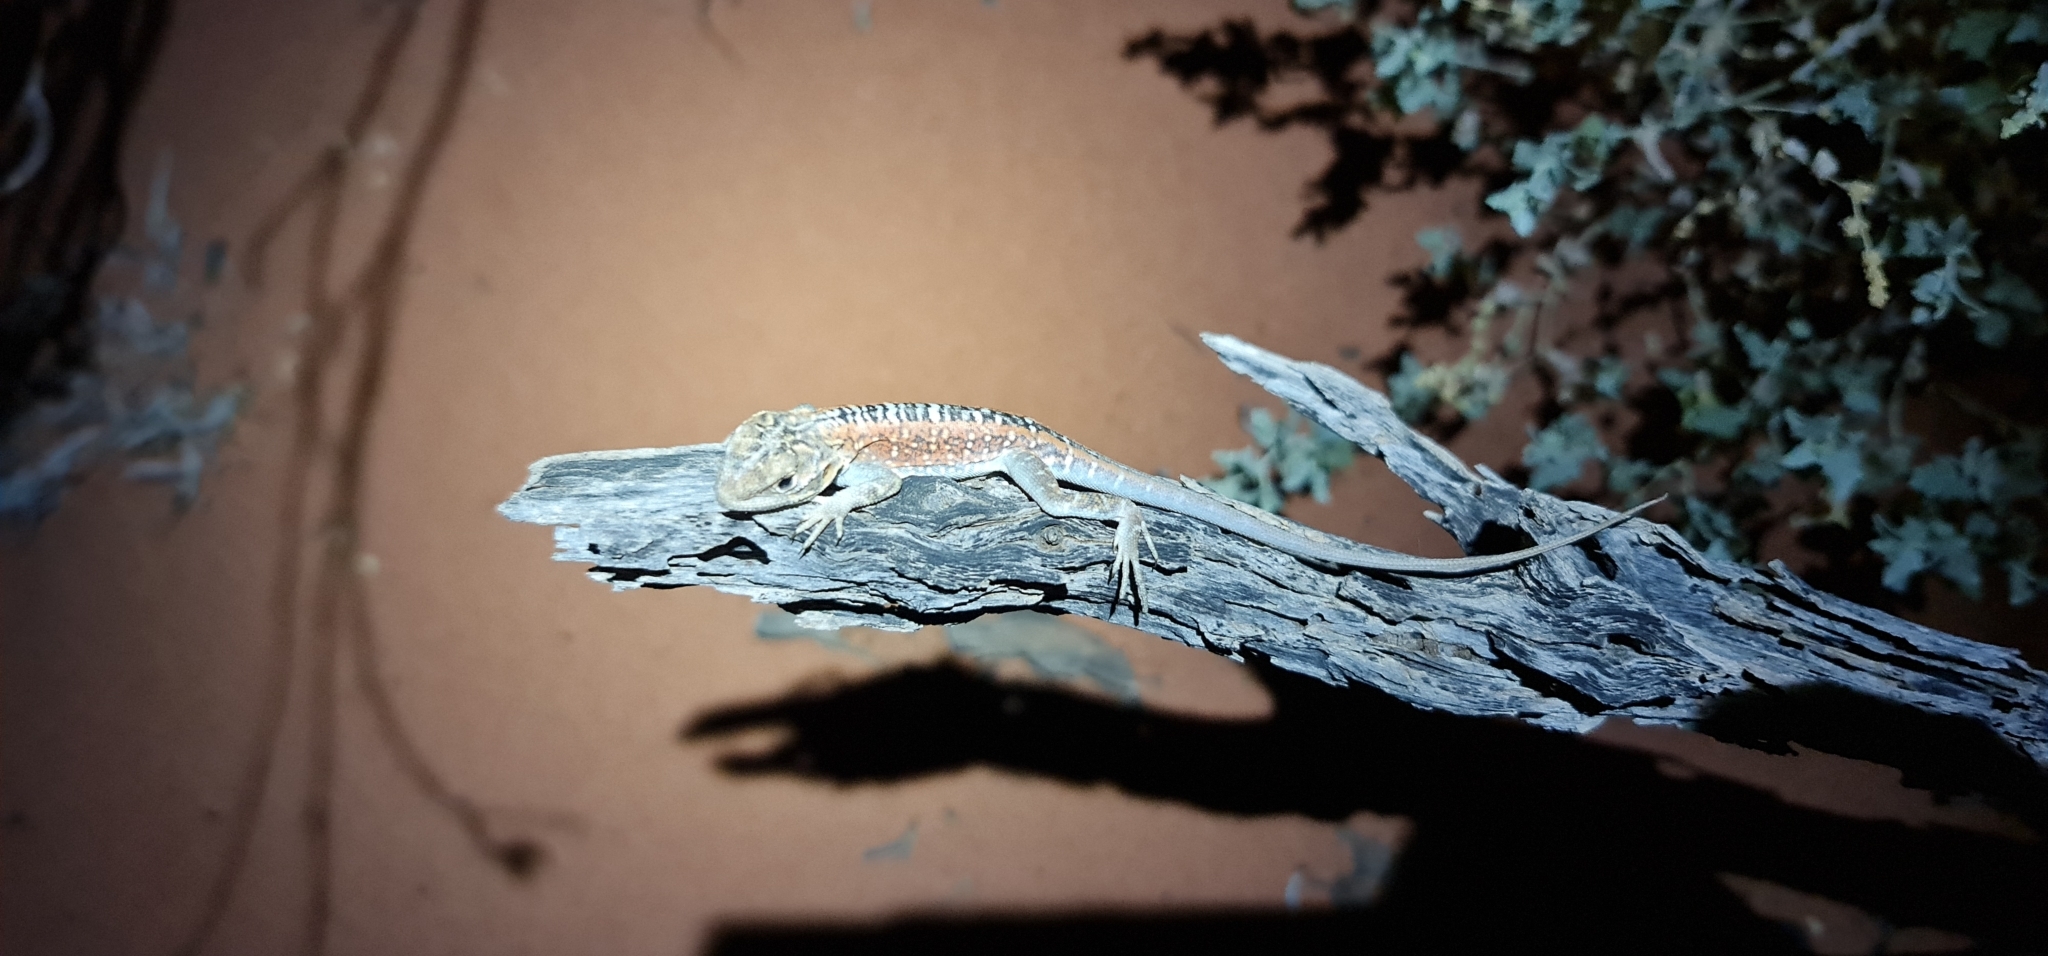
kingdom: Animalia
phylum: Chordata
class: Squamata
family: Agamidae
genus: Ctenophorus
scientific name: Ctenophorus pictus
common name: Painted dragon
